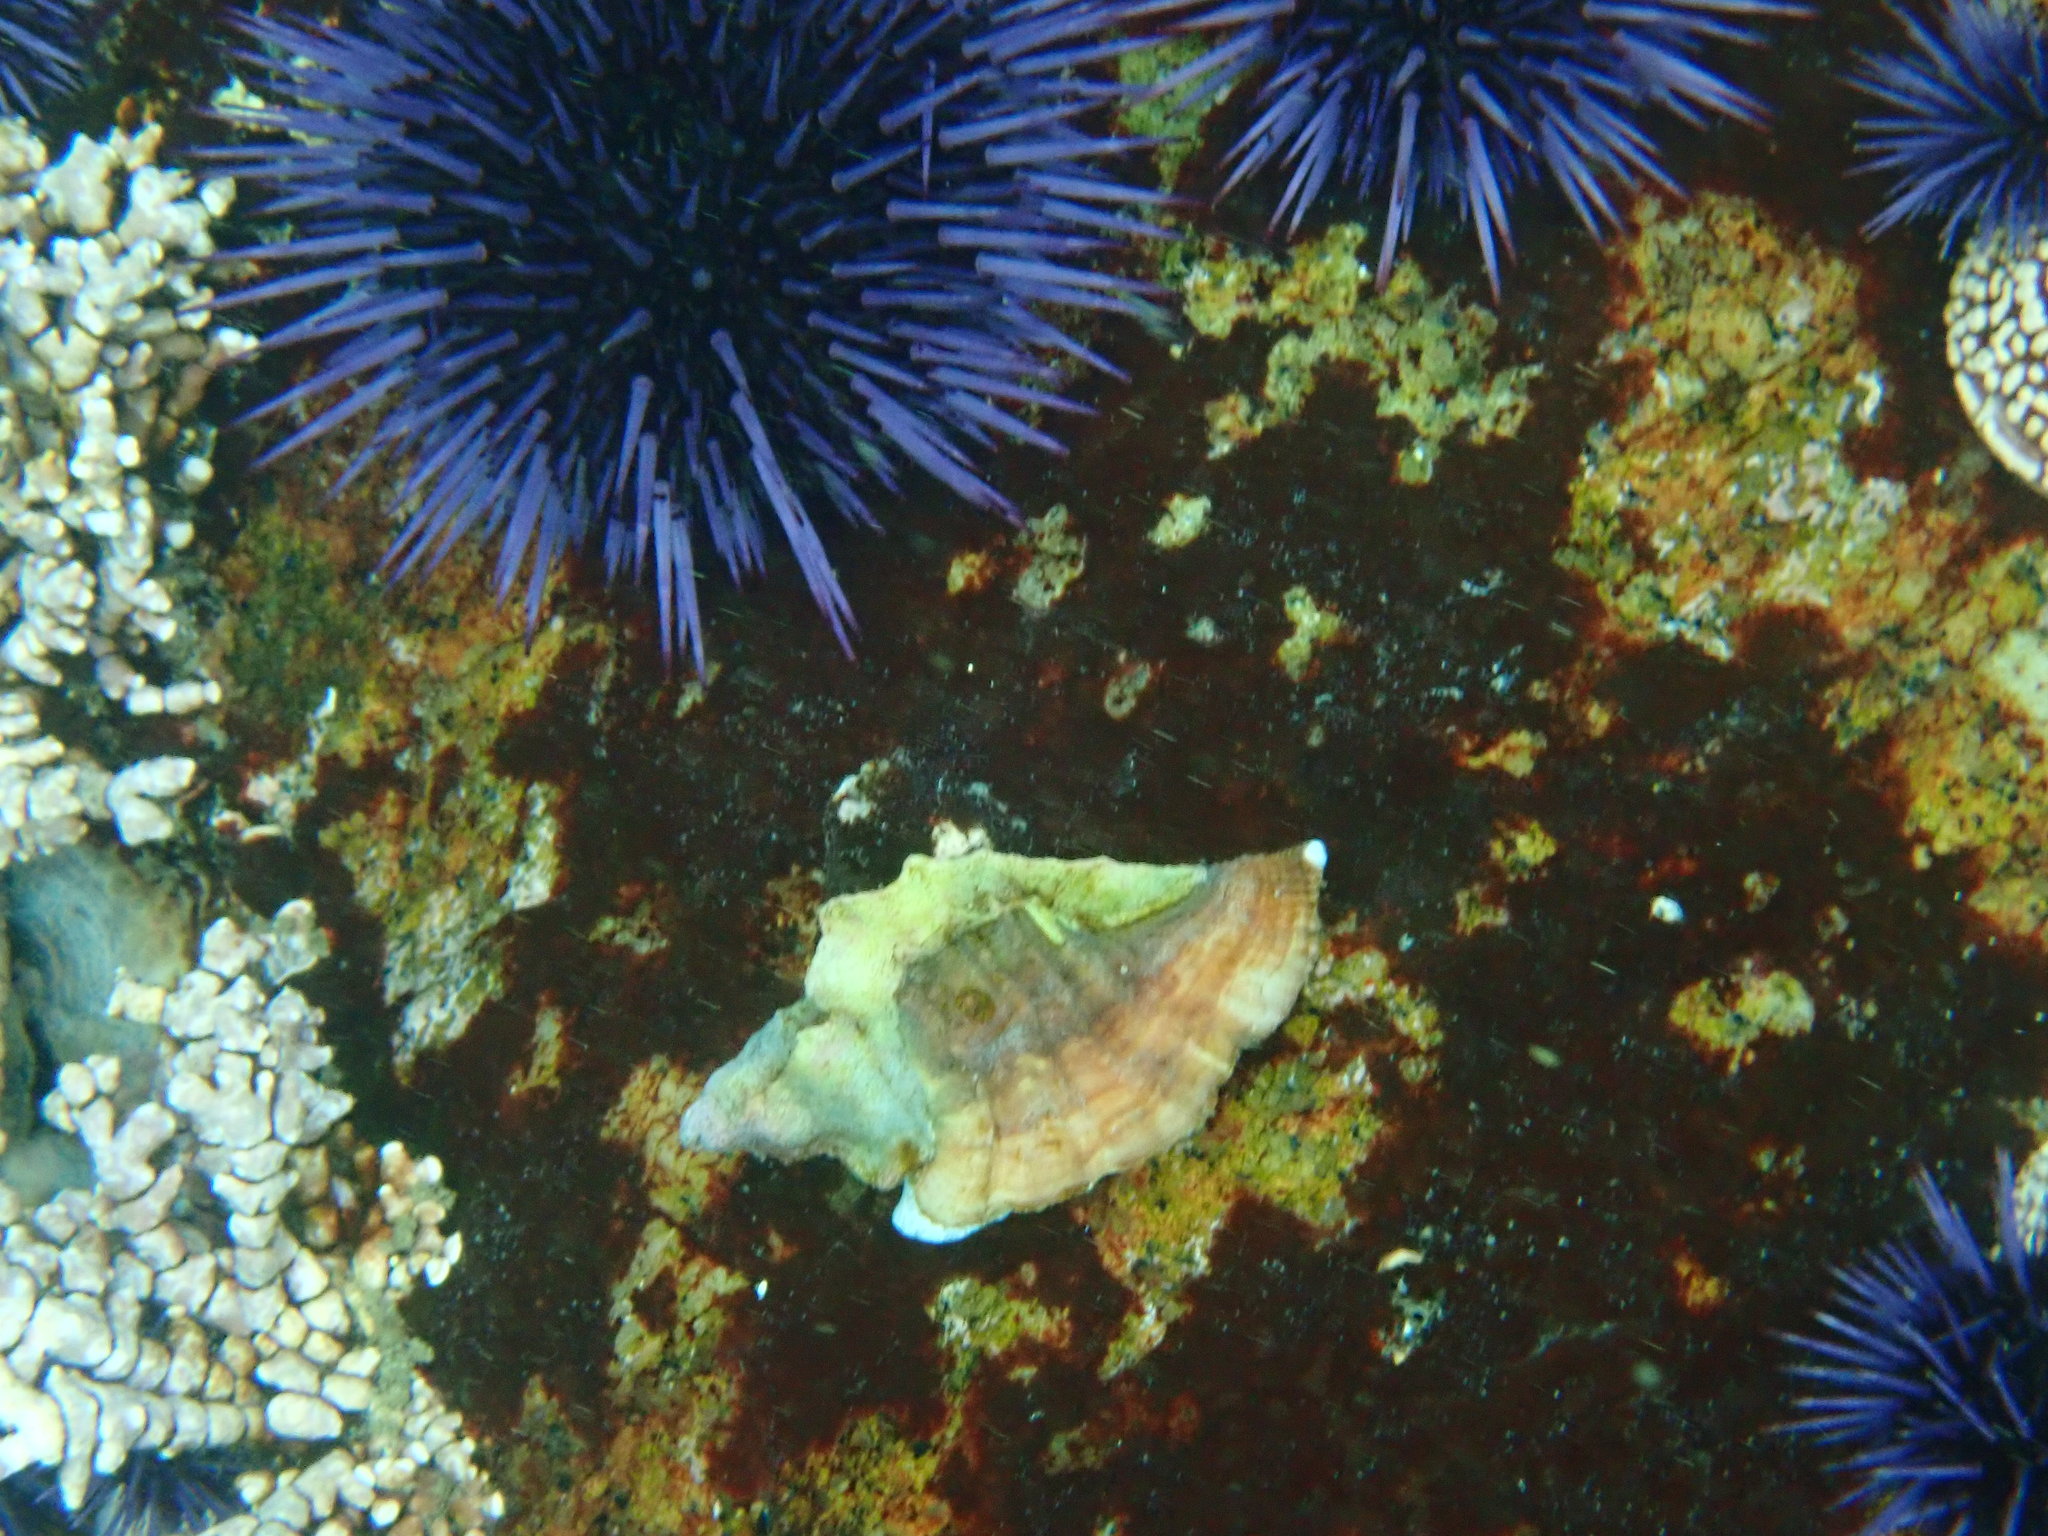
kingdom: Animalia
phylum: Mollusca
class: Gastropoda
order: Neogastropoda
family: Muricidae
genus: Ceratostoma
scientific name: Ceratostoma foliatum
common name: Foliate thorn purpura
